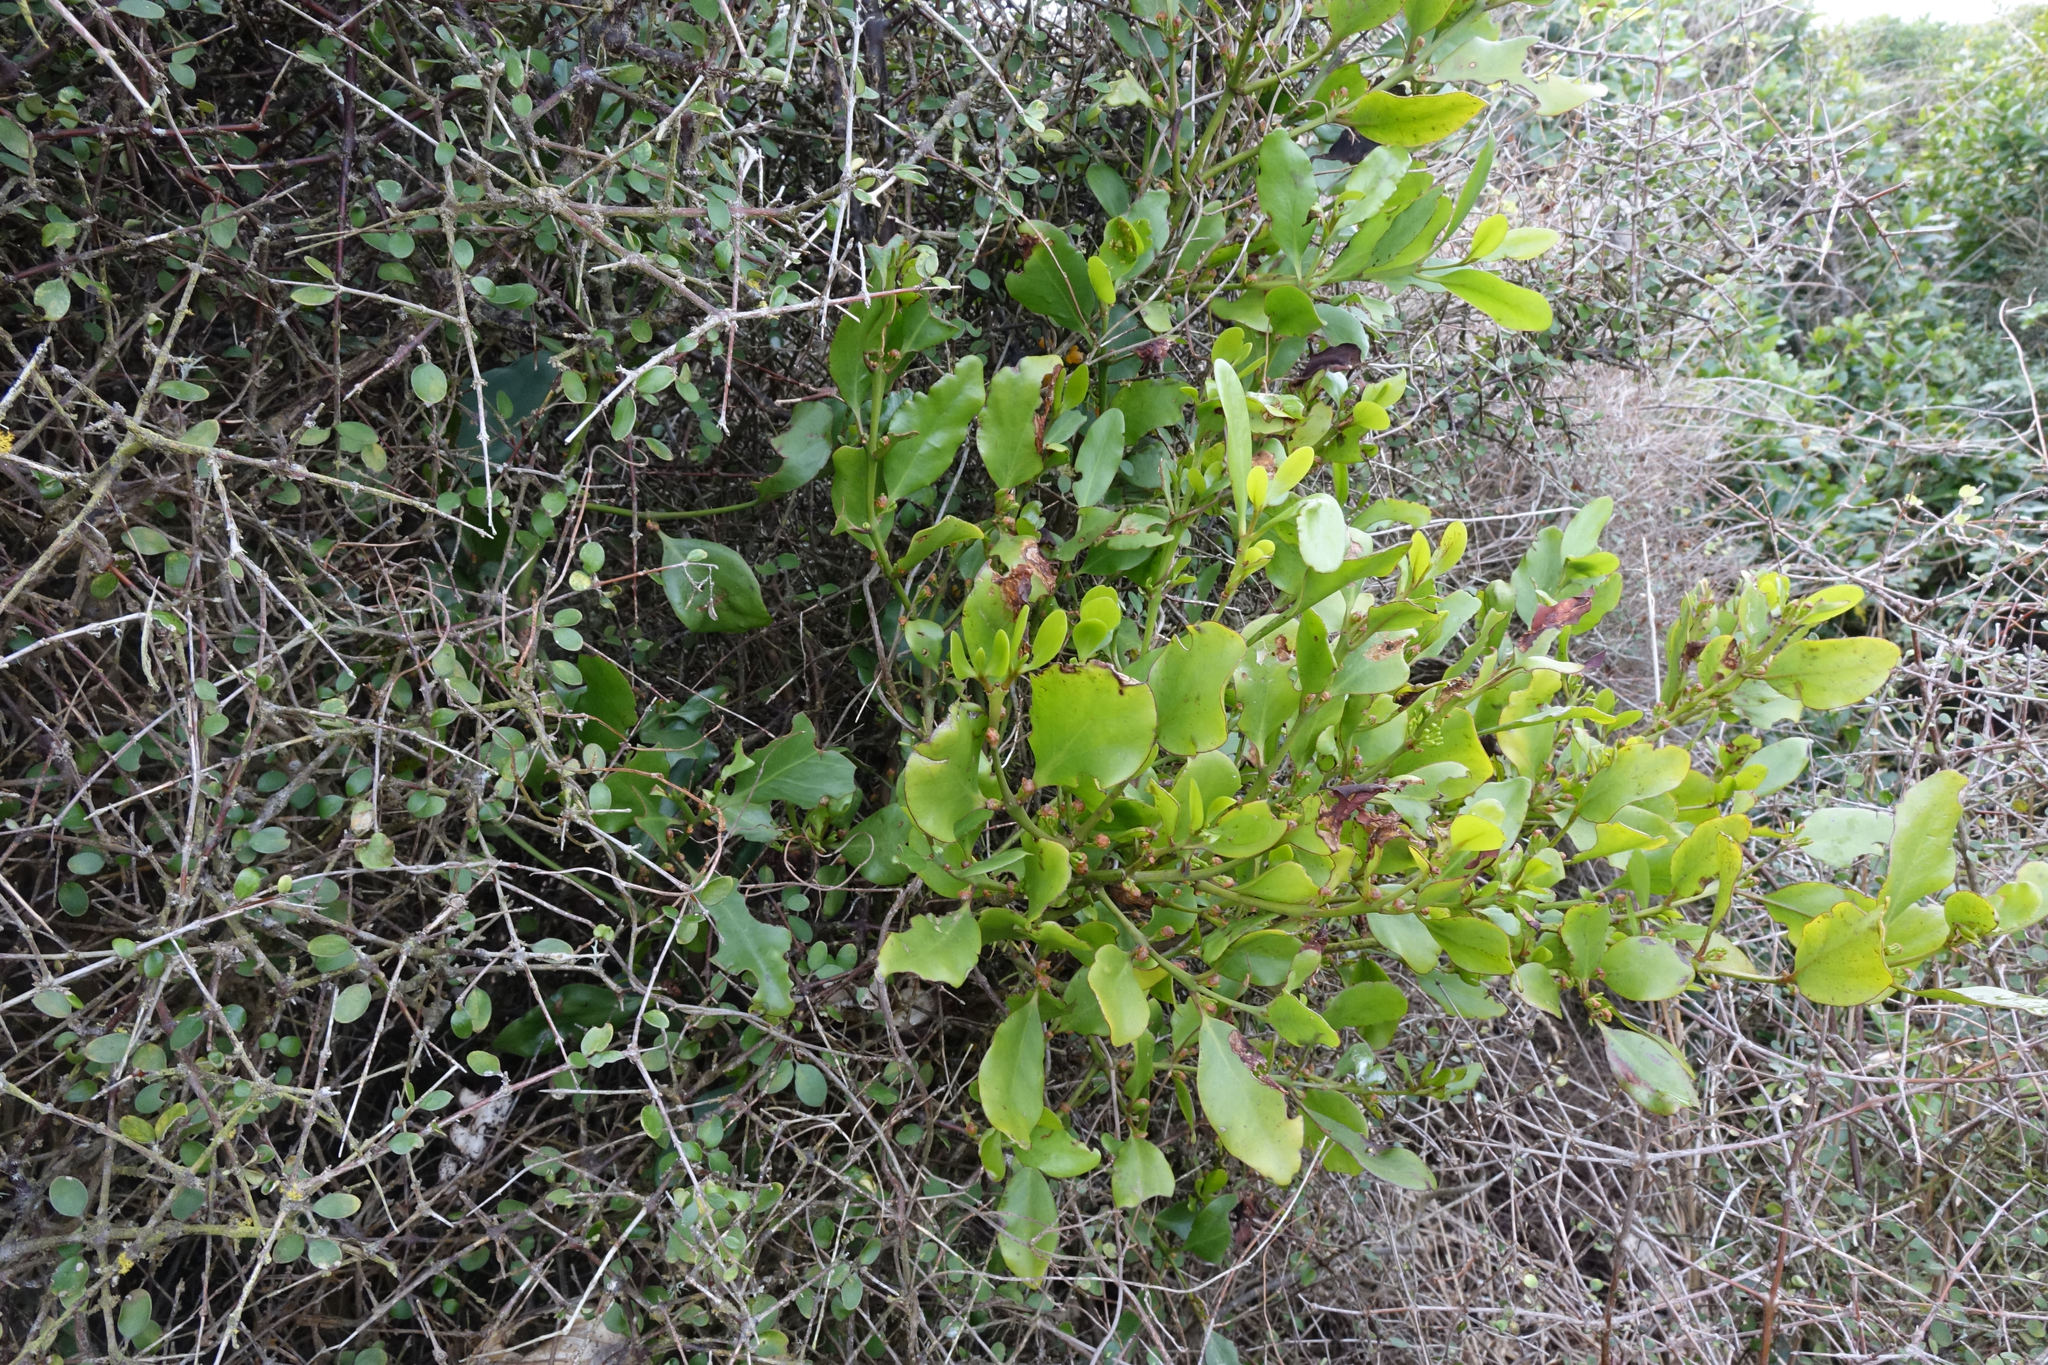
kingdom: Plantae
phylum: Tracheophyta
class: Magnoliopsida
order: Santalales
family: Loranthaceae
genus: Ileostylus
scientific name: Ileostylus micranthus
